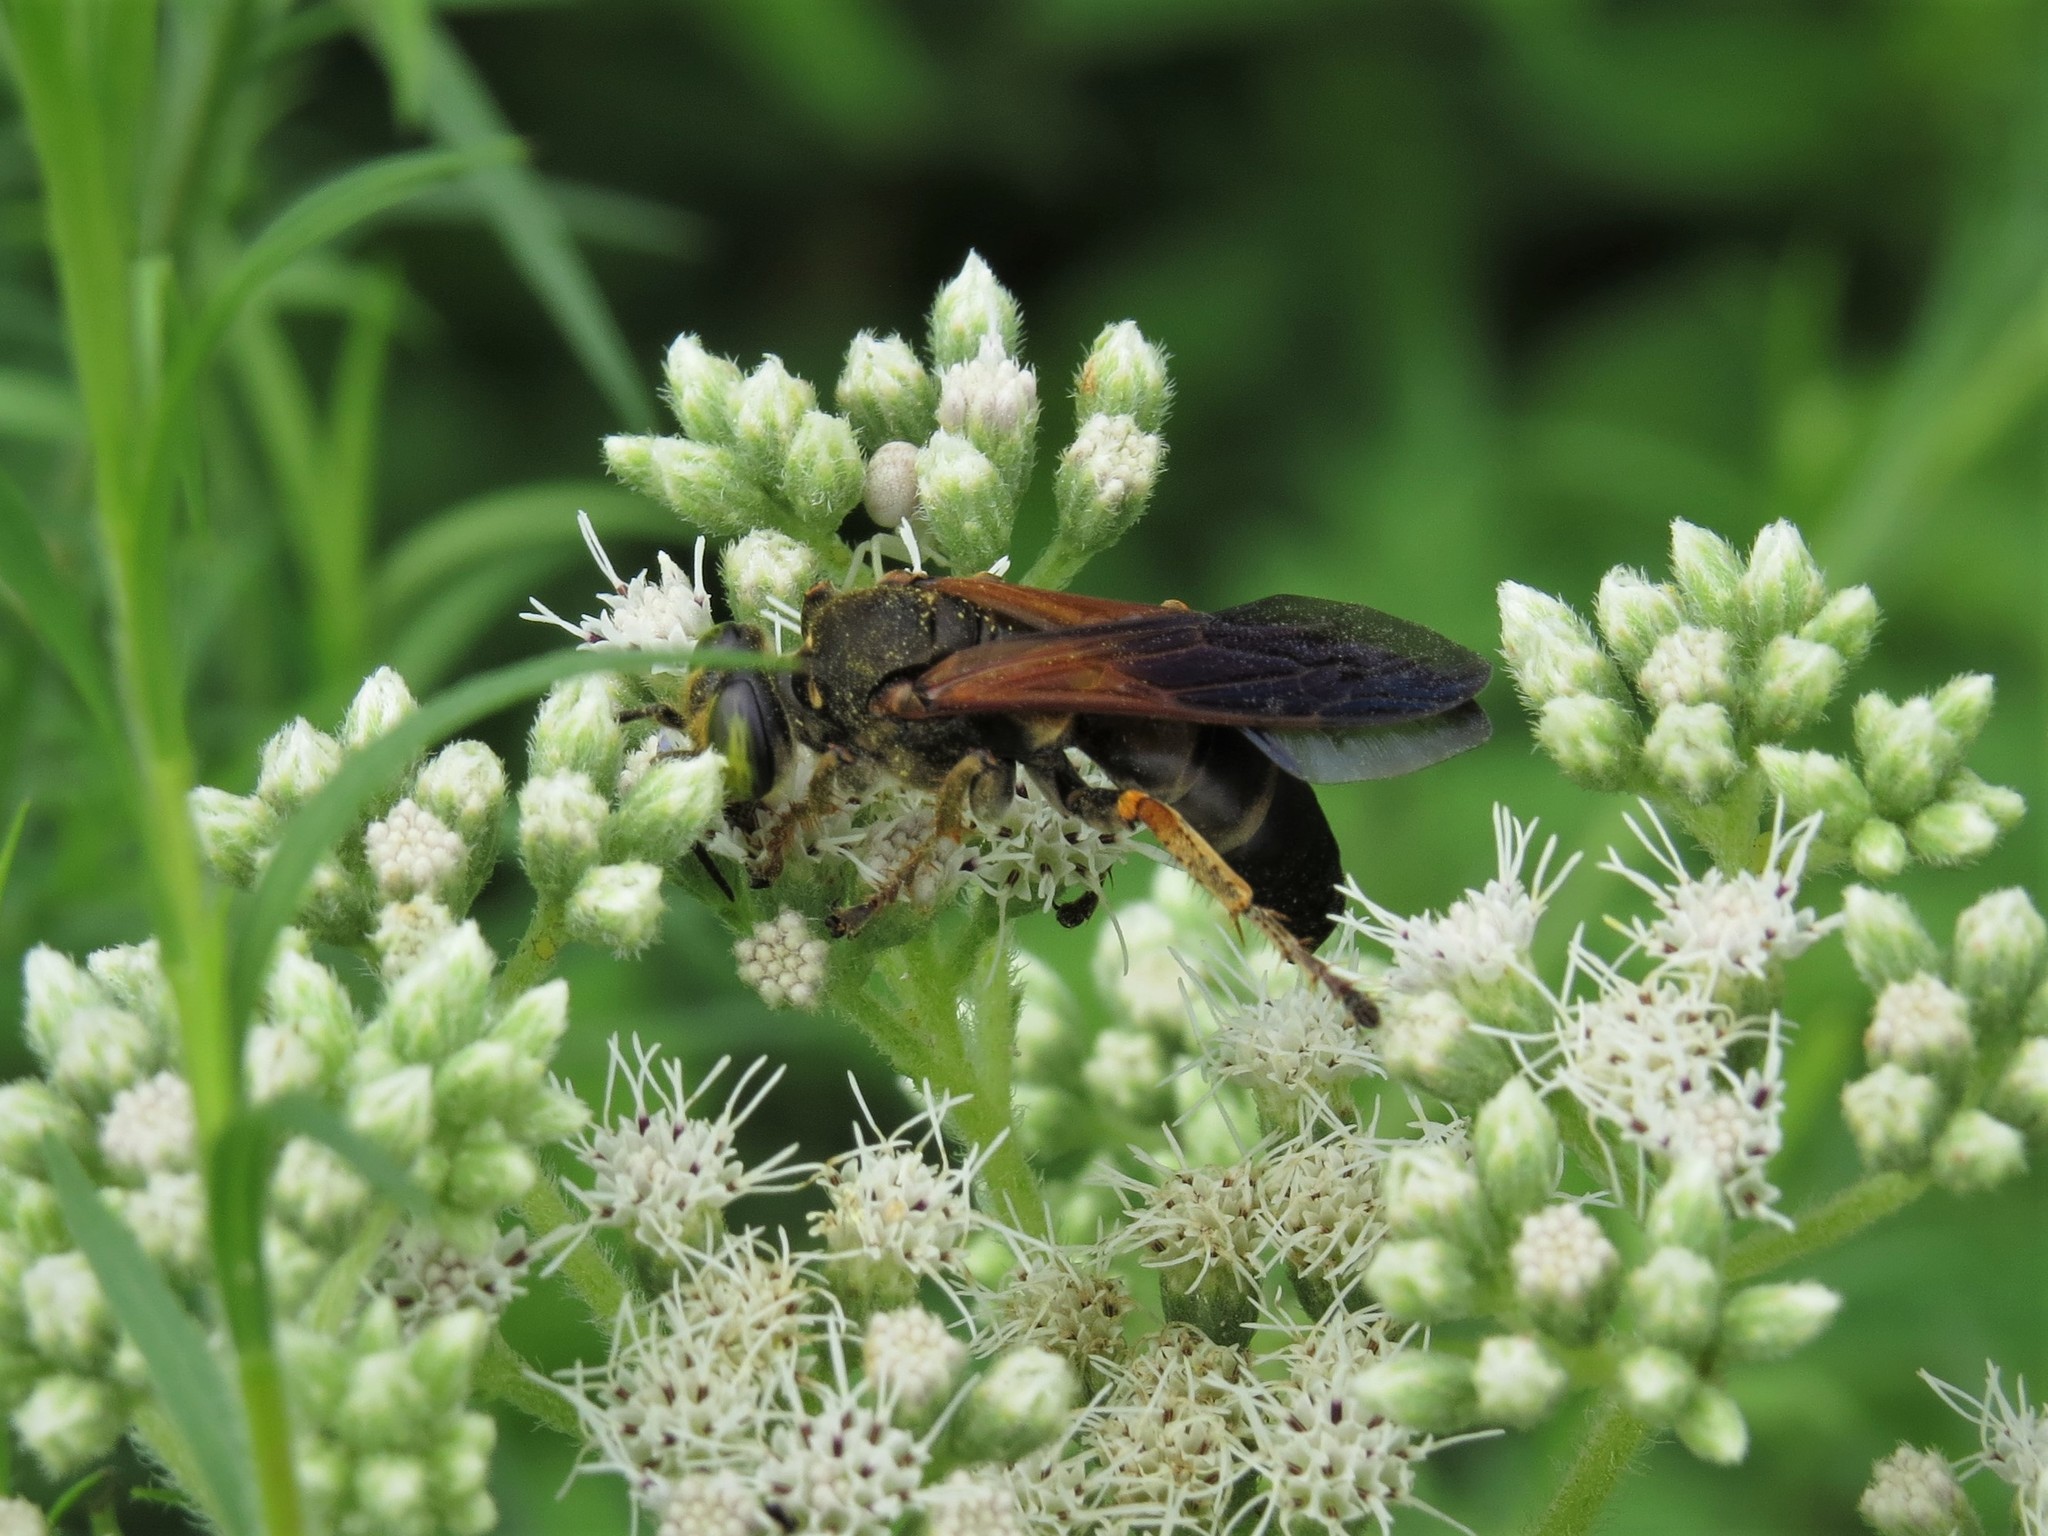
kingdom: Animalia
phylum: Arthropoda
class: Insecta
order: Hymenoptera
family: Crabronidae
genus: Tachytes
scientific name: Tachytes guatemalensis
